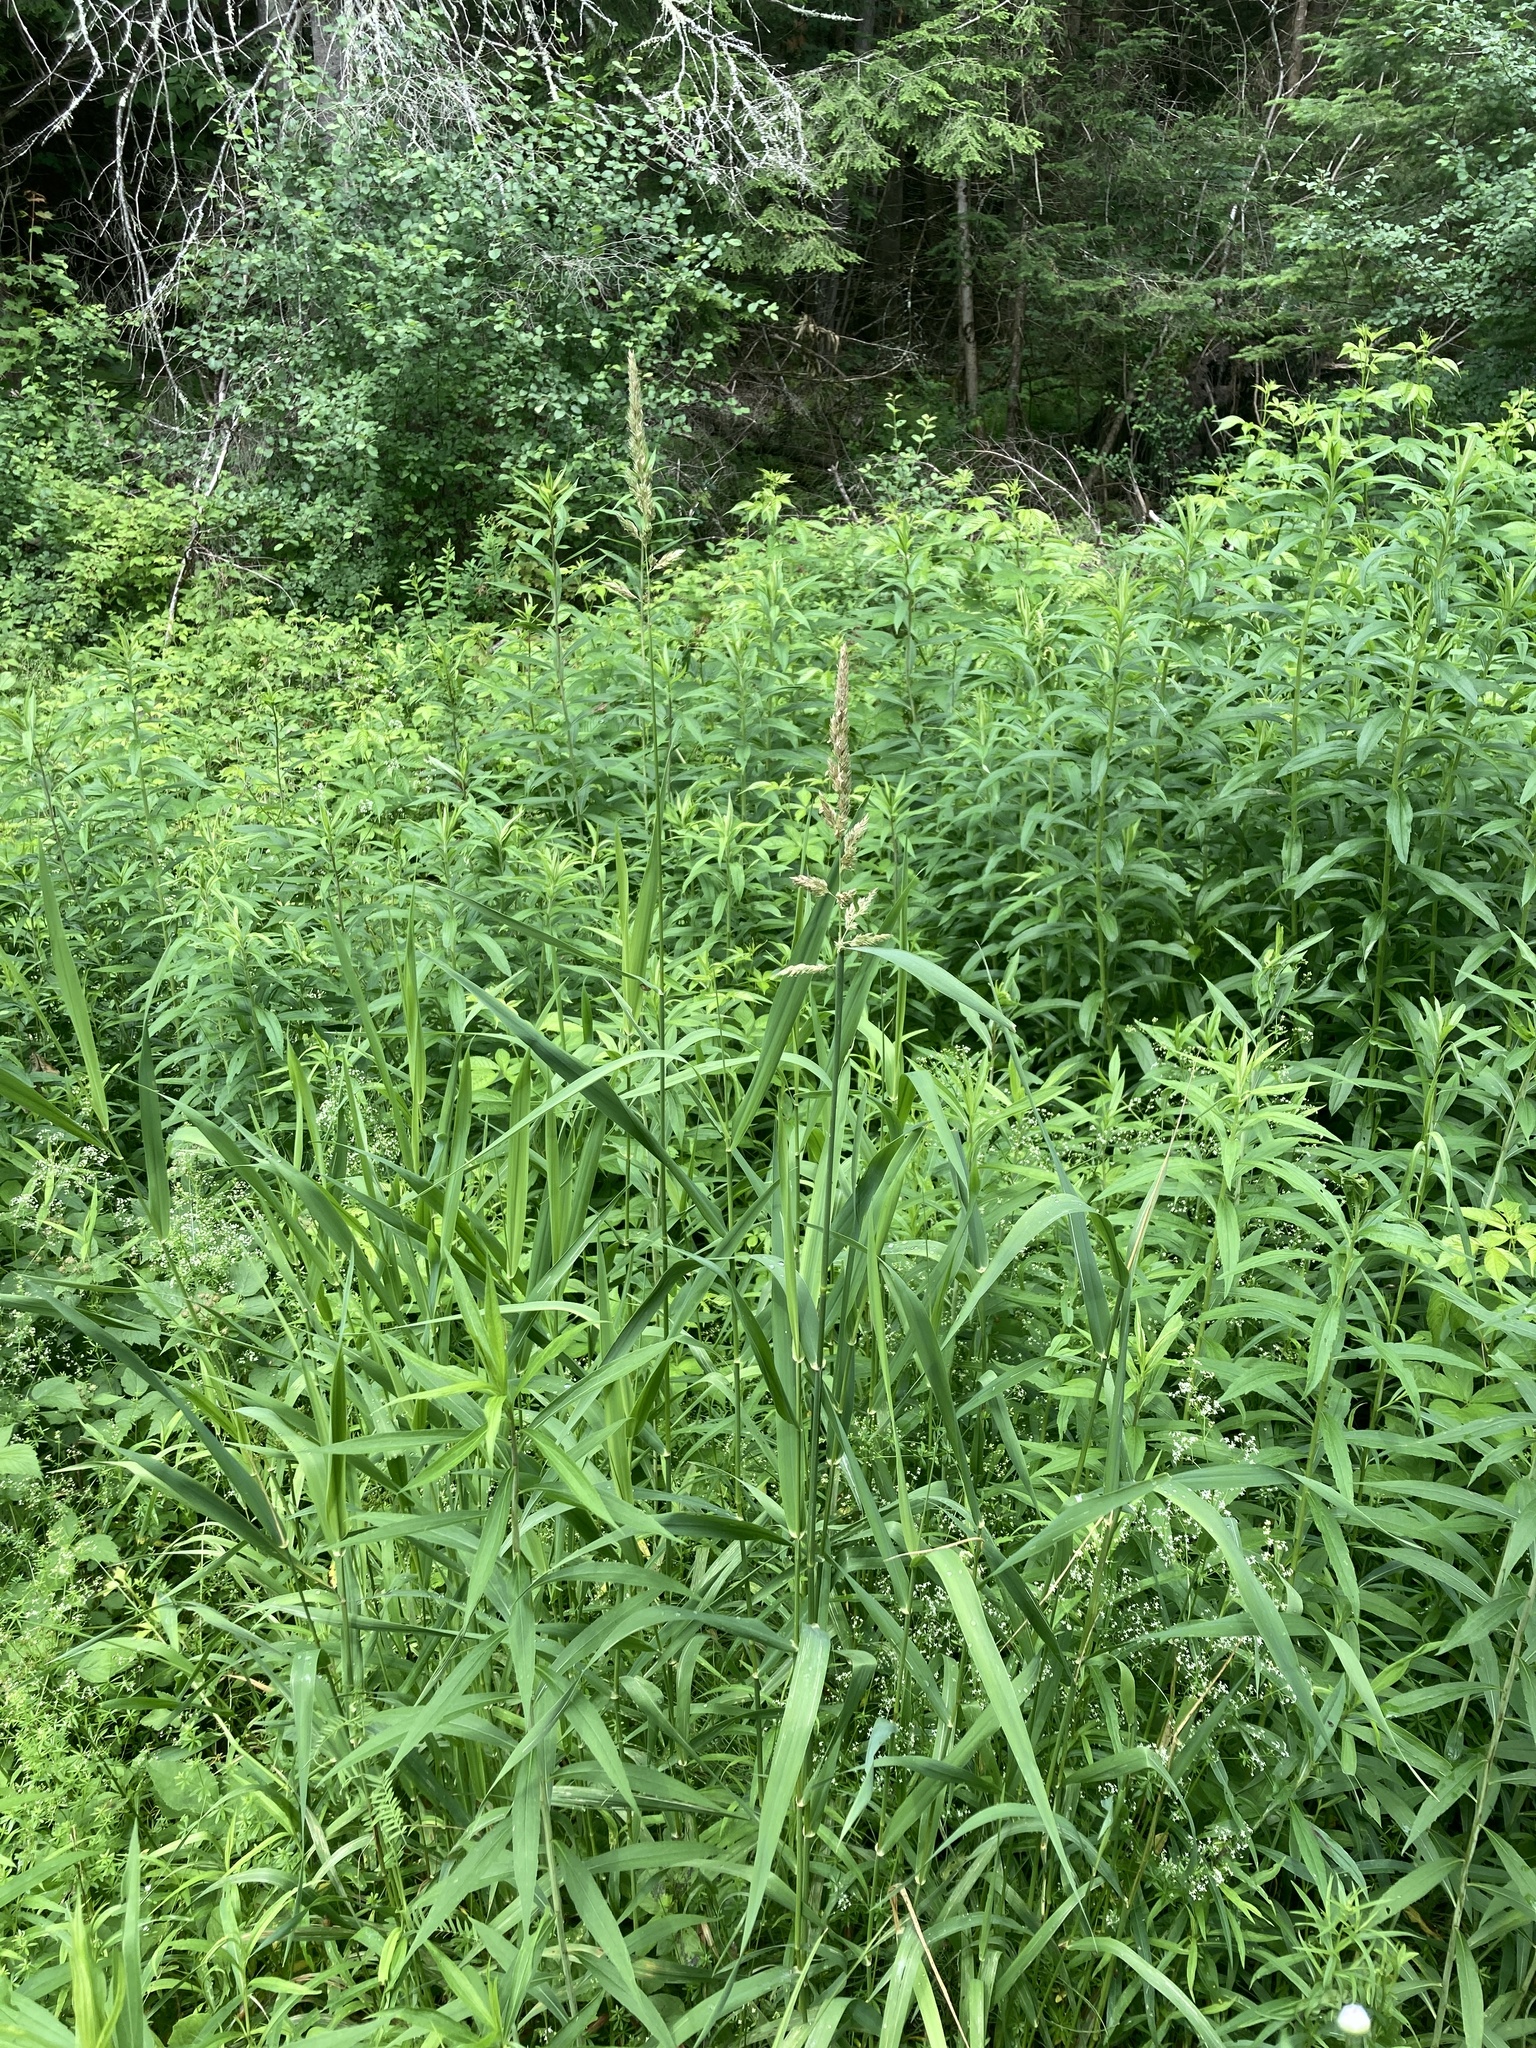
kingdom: Plantae
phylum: Tracheophyta
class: Liliopsida
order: Poales
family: Poaceae
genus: Phalaris
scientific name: Phalaris arundinacea
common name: Reed canary-grass
